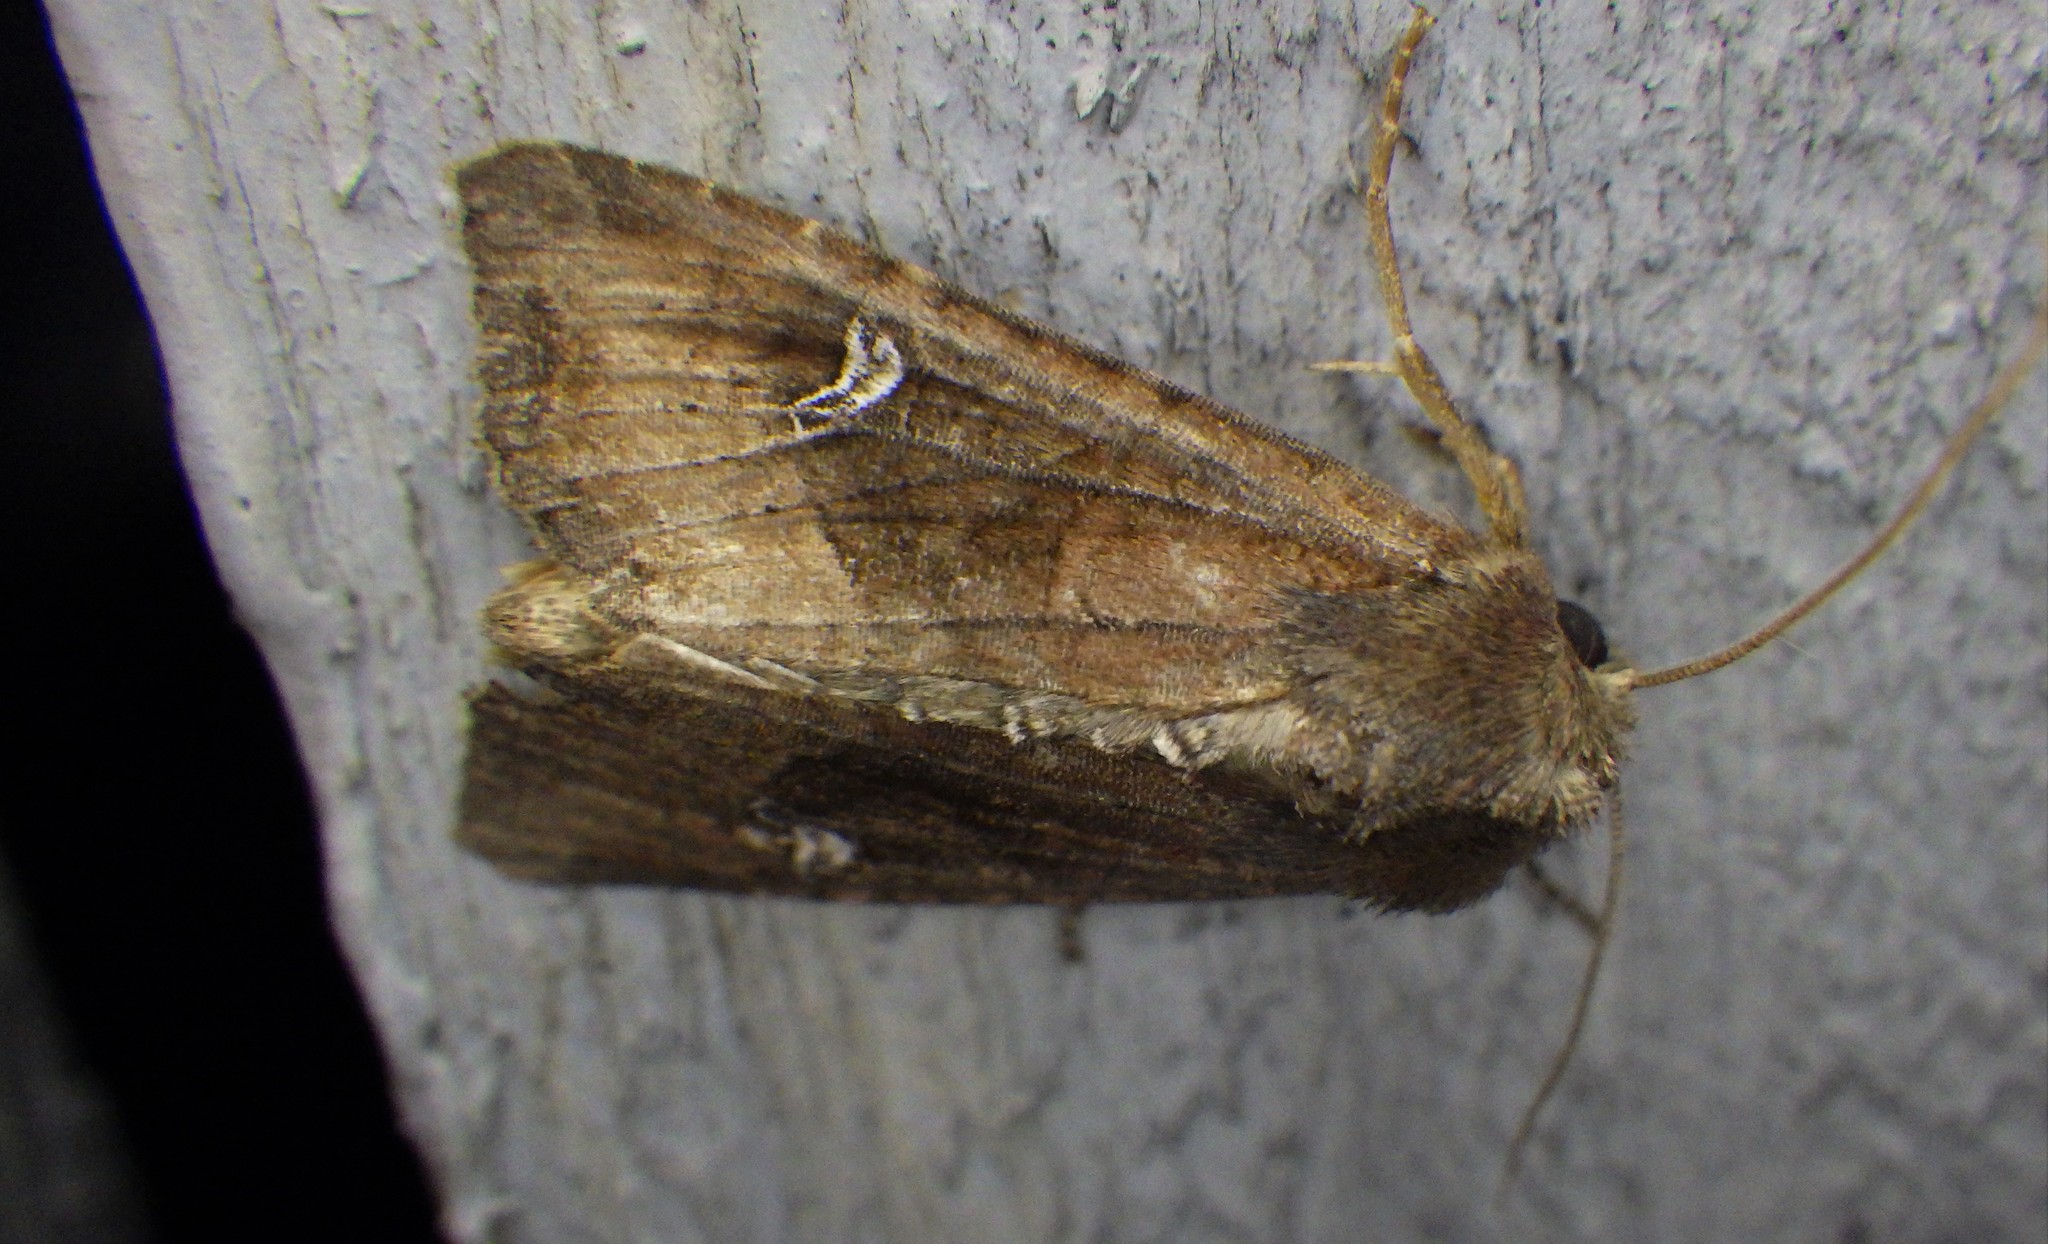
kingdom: Animalia
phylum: Arthropoda
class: Insecta
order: Lepidoptera
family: Noctuidae
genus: Helotropha
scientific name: Helotropha leucostigma
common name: The crescent
